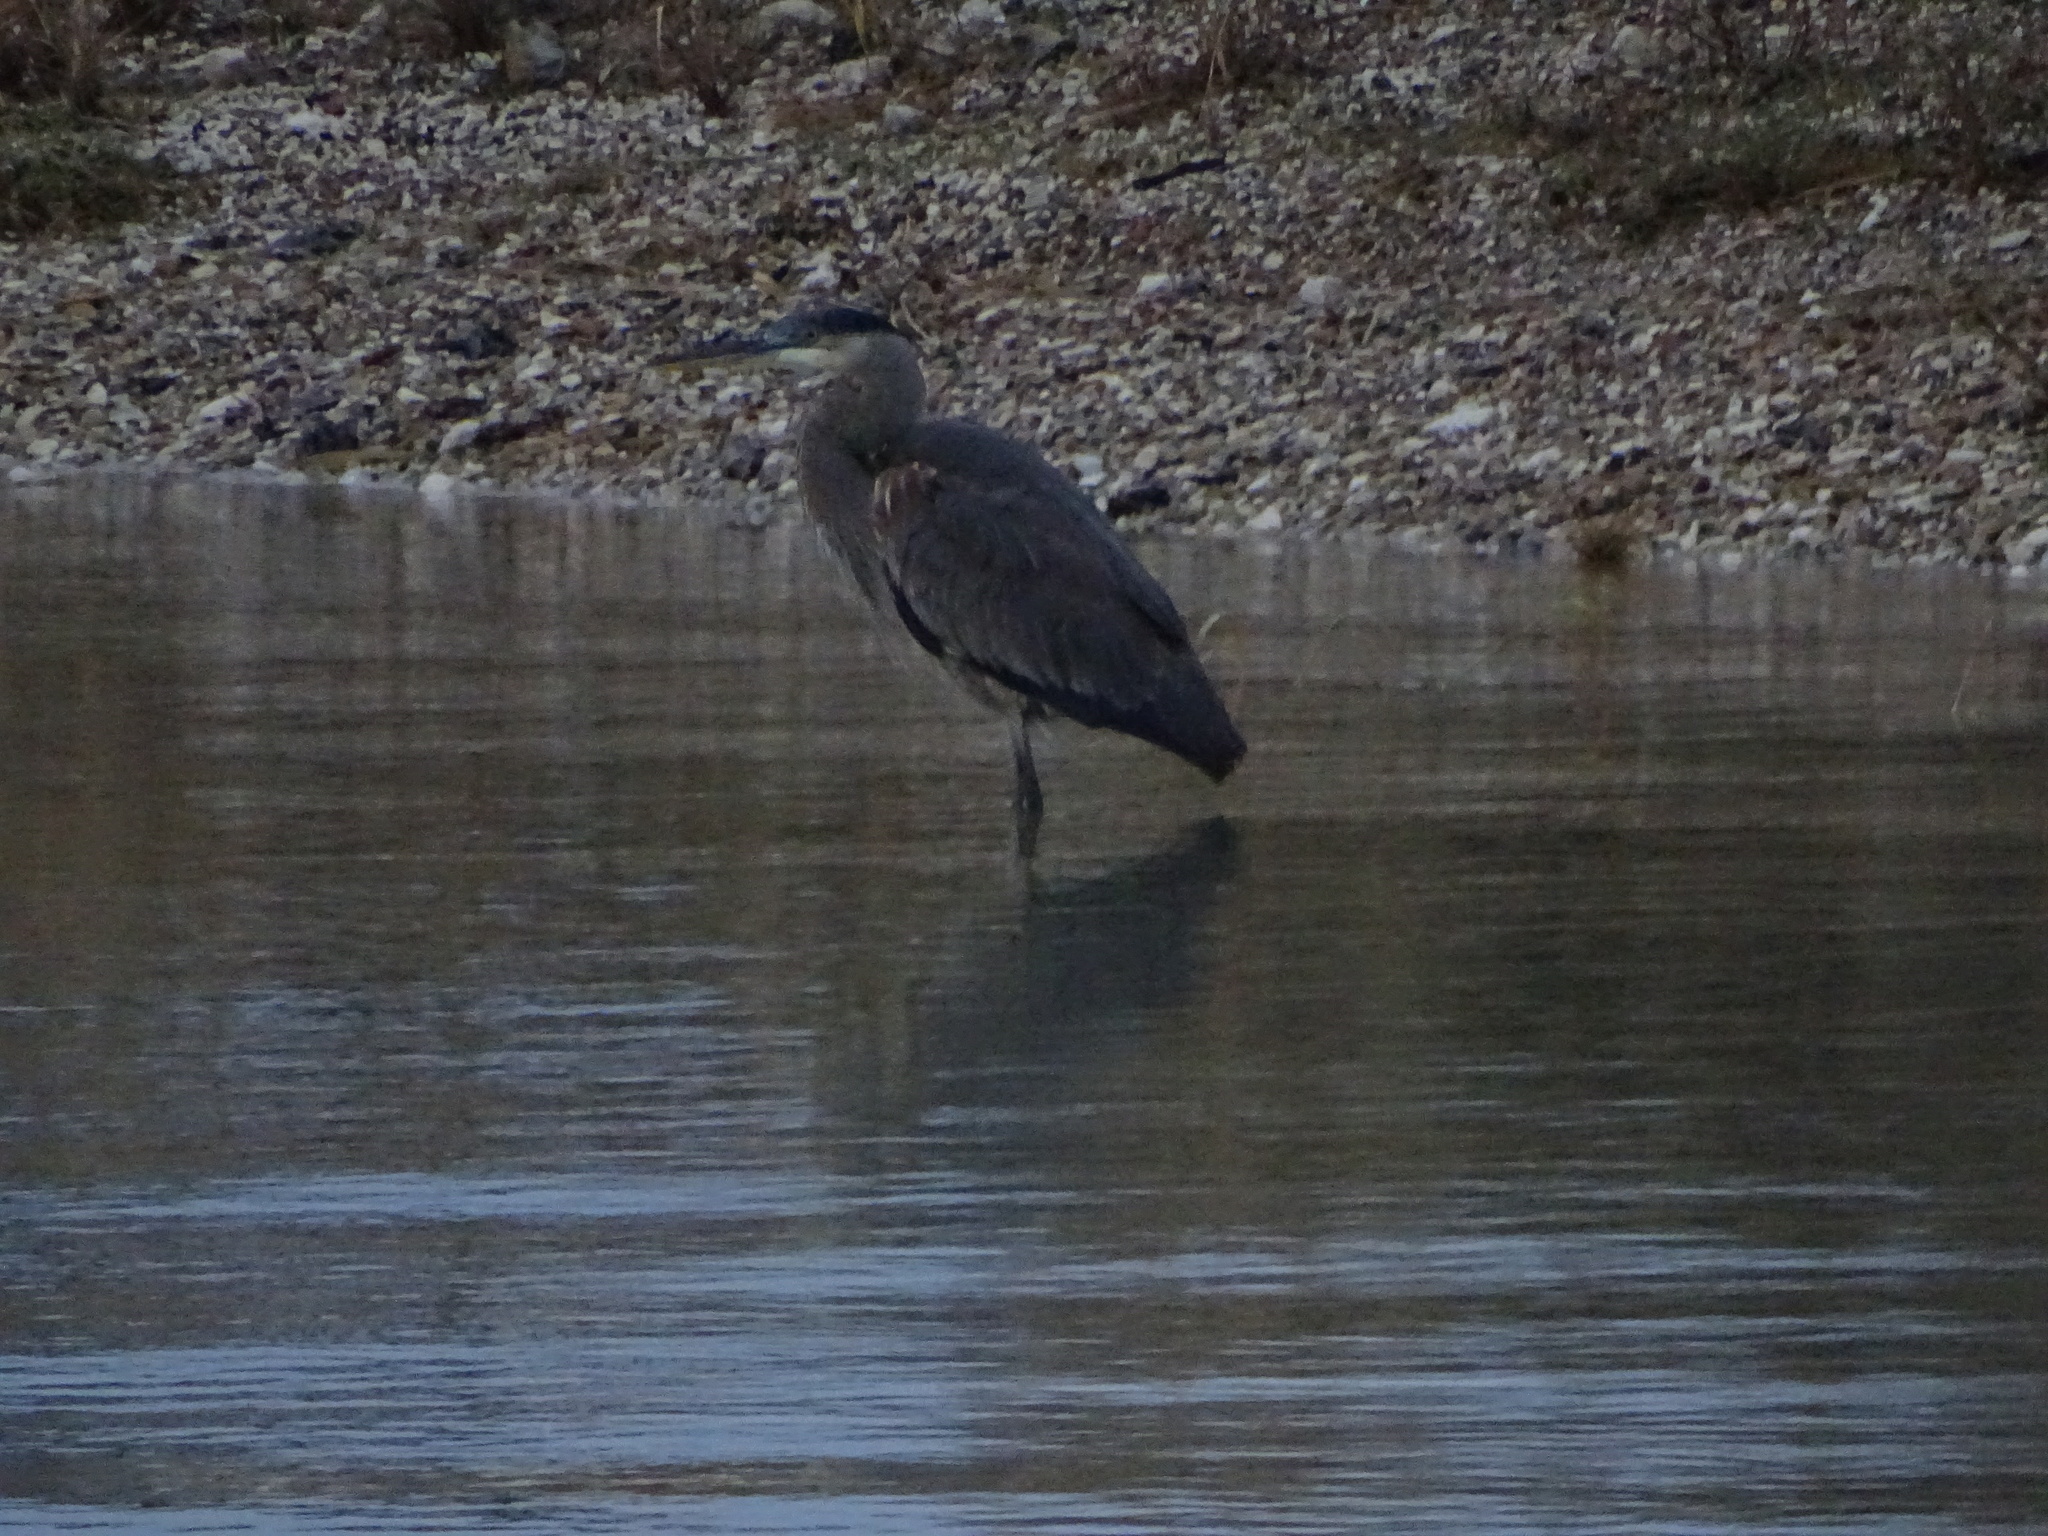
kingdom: Animalia
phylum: Chordata
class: Aves
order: Pelecaniformes
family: Ardeidae
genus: Ardea
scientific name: Ardea herodias
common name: Great blue heron
